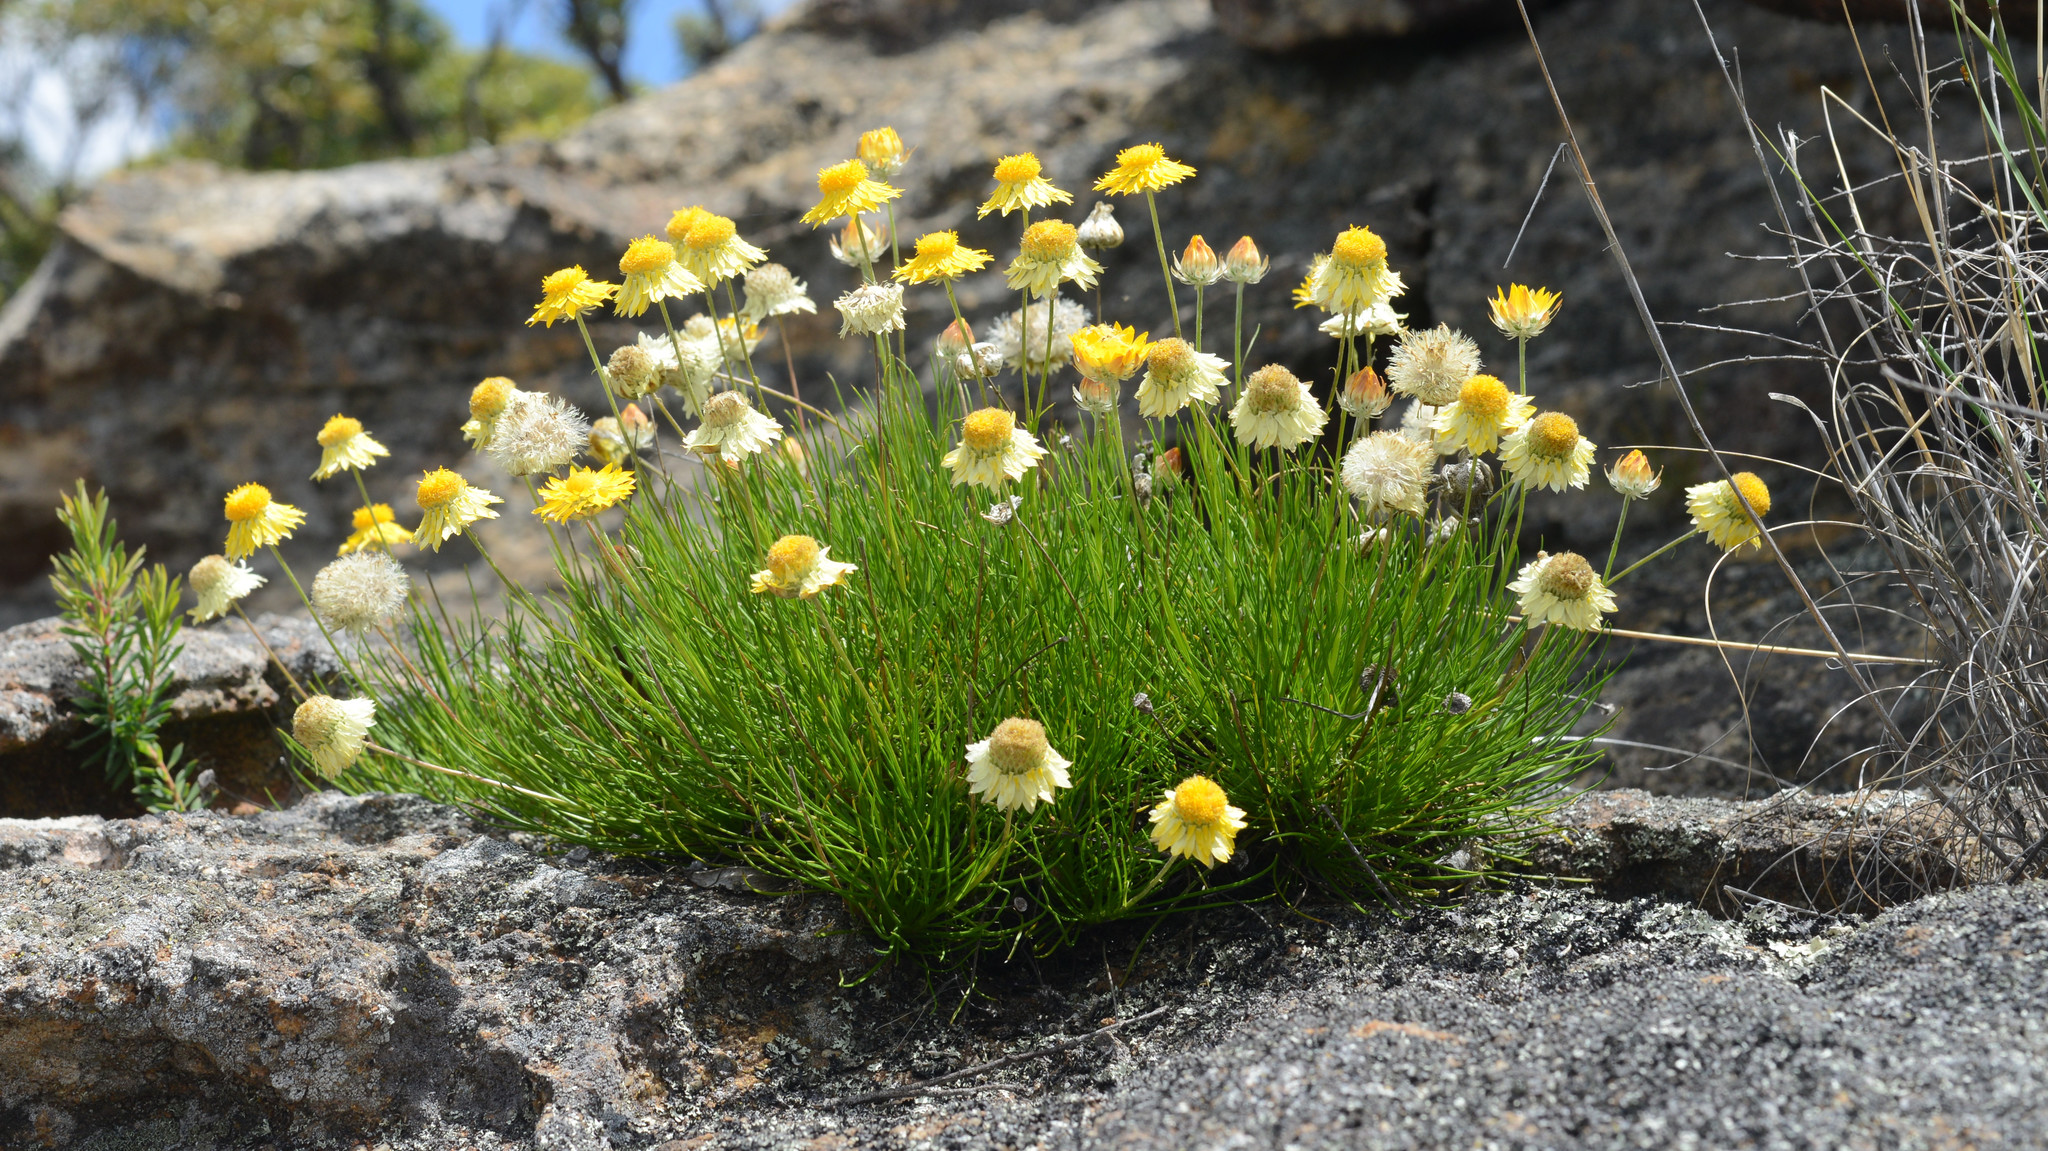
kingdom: Plantae
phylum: Tracheophyta
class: Magnoliopsida
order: Asterales
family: Asteraceae
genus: Leucochrysum
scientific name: Leucochrysum graminifolium
